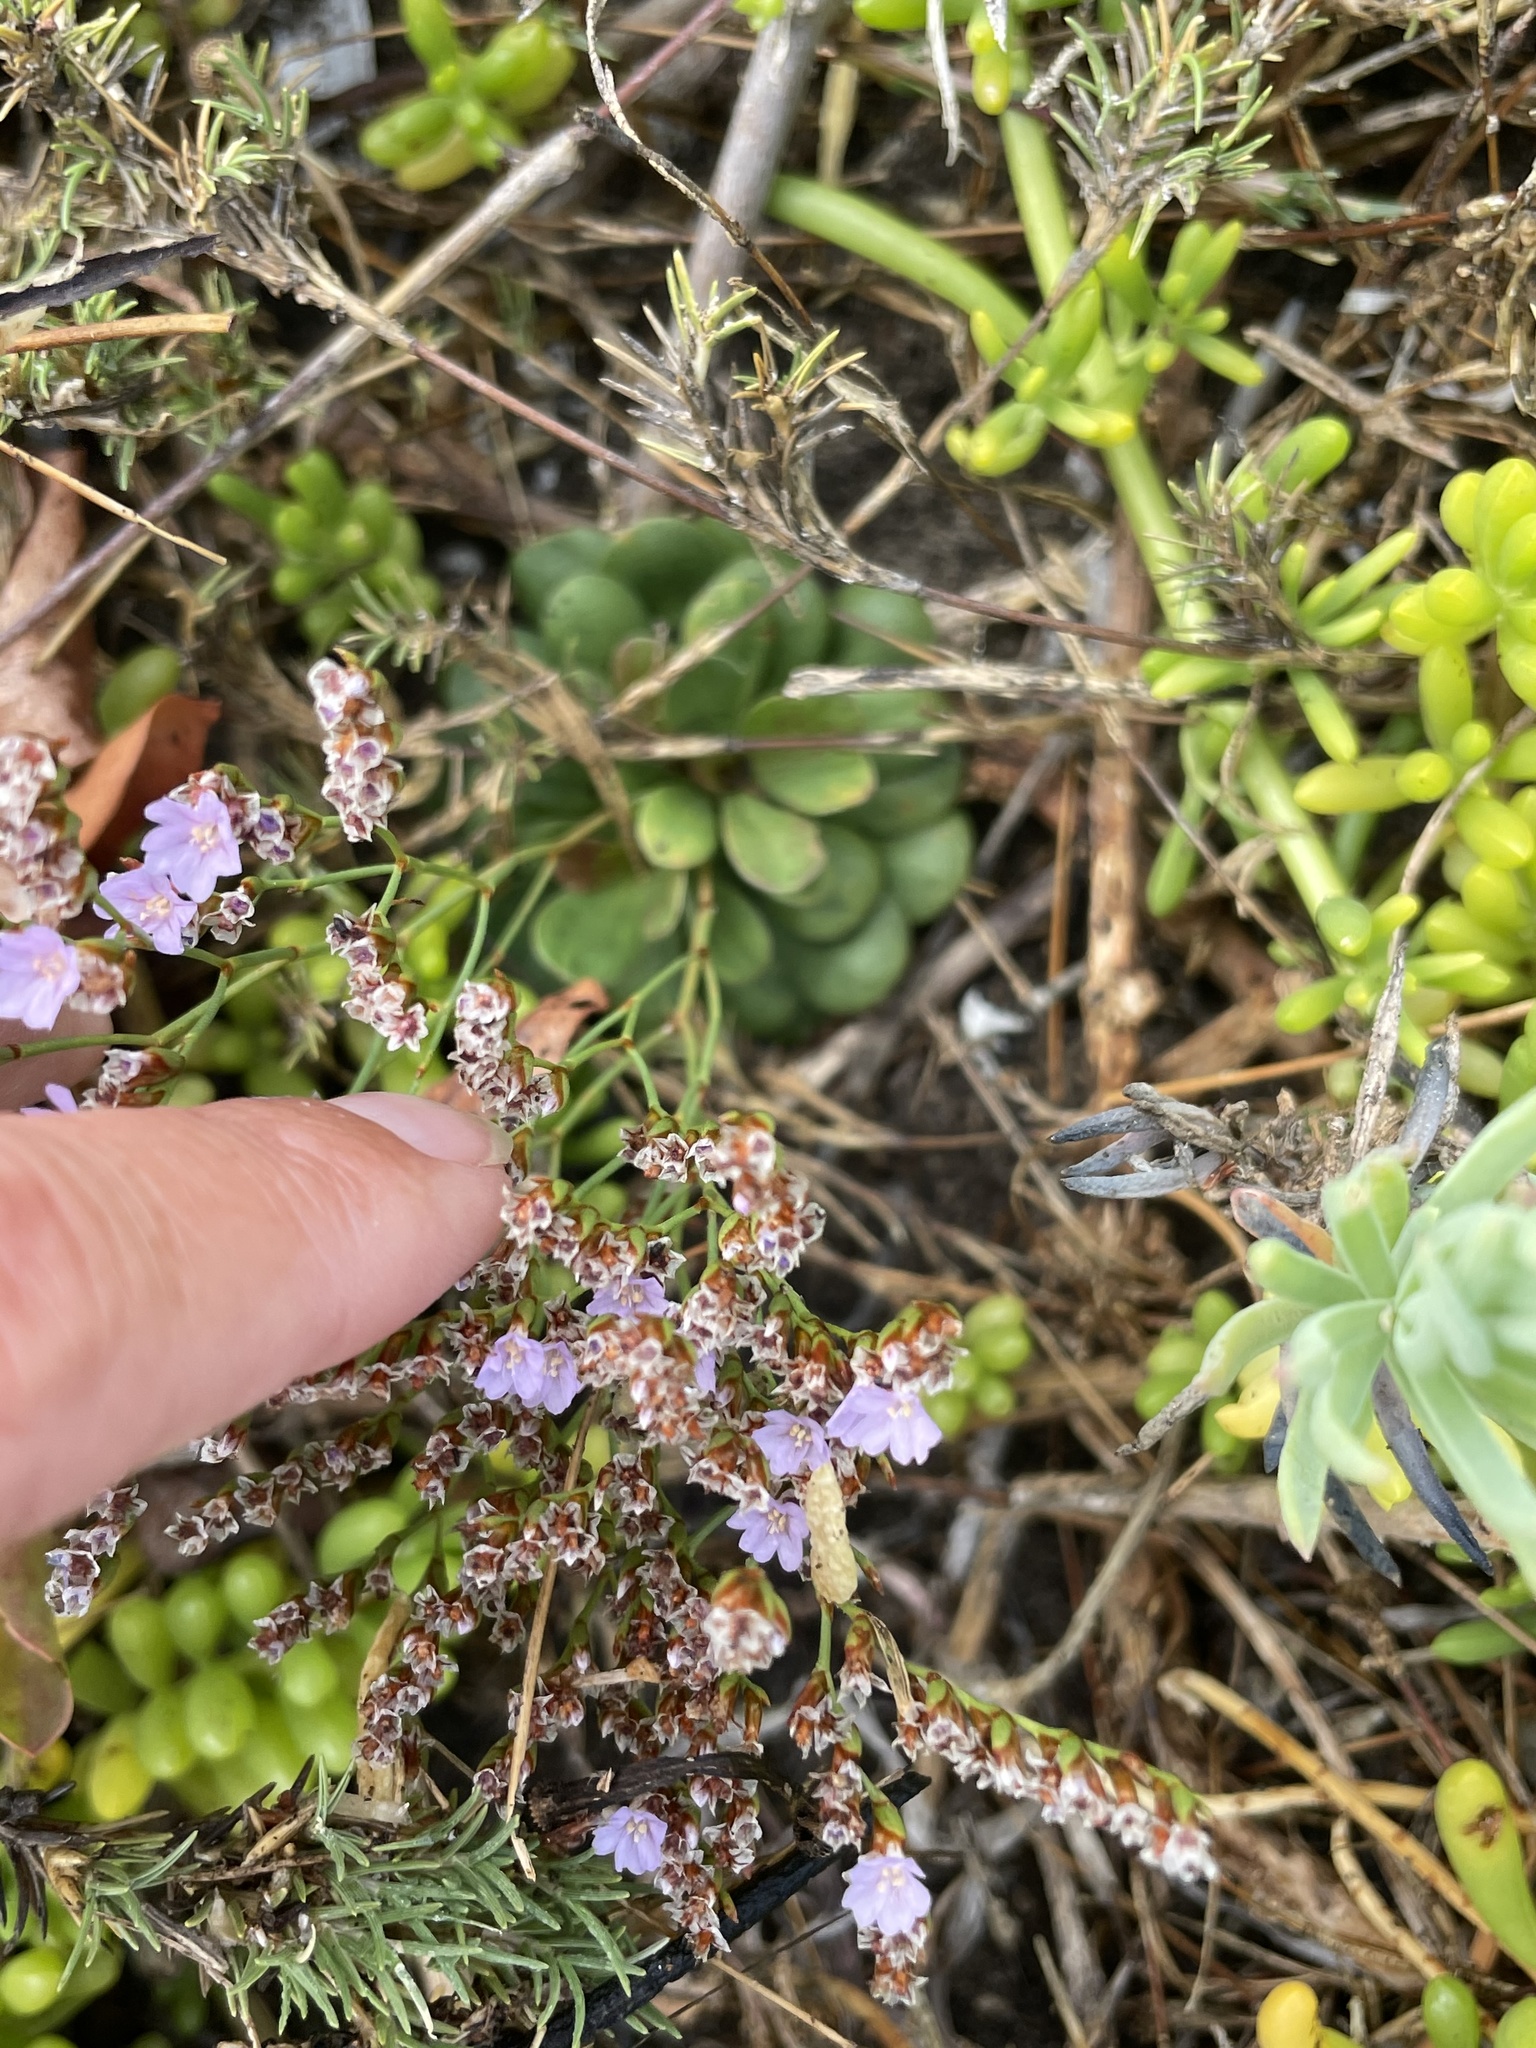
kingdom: Plantae
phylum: Tracheophyta
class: Magnoliopsida
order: Caryophyllales
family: Plumbaginaceae
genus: Limonium
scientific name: Limonium duriusculum
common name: European sea lavendar
